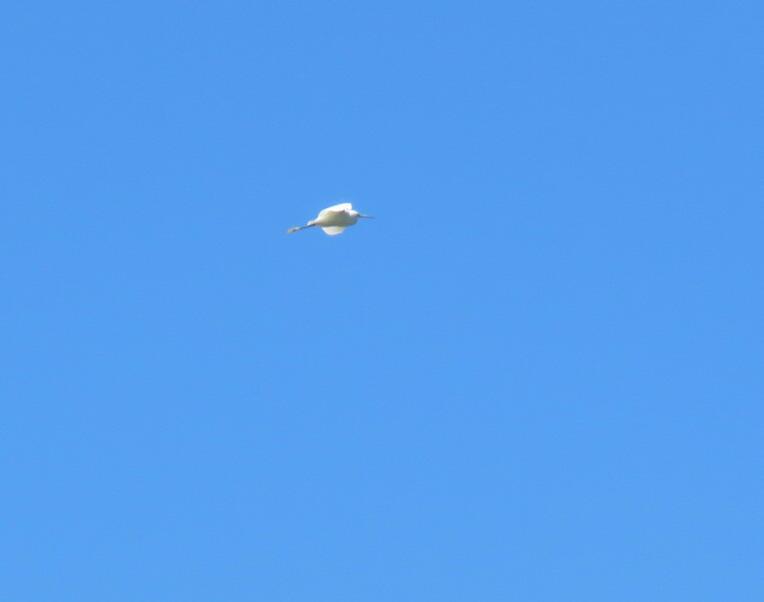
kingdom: Animalia
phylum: Chordata
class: Aves
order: Pelecaniformes
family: Ardeidae
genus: Egretta
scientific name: Egretta thula
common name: Snowy egret
